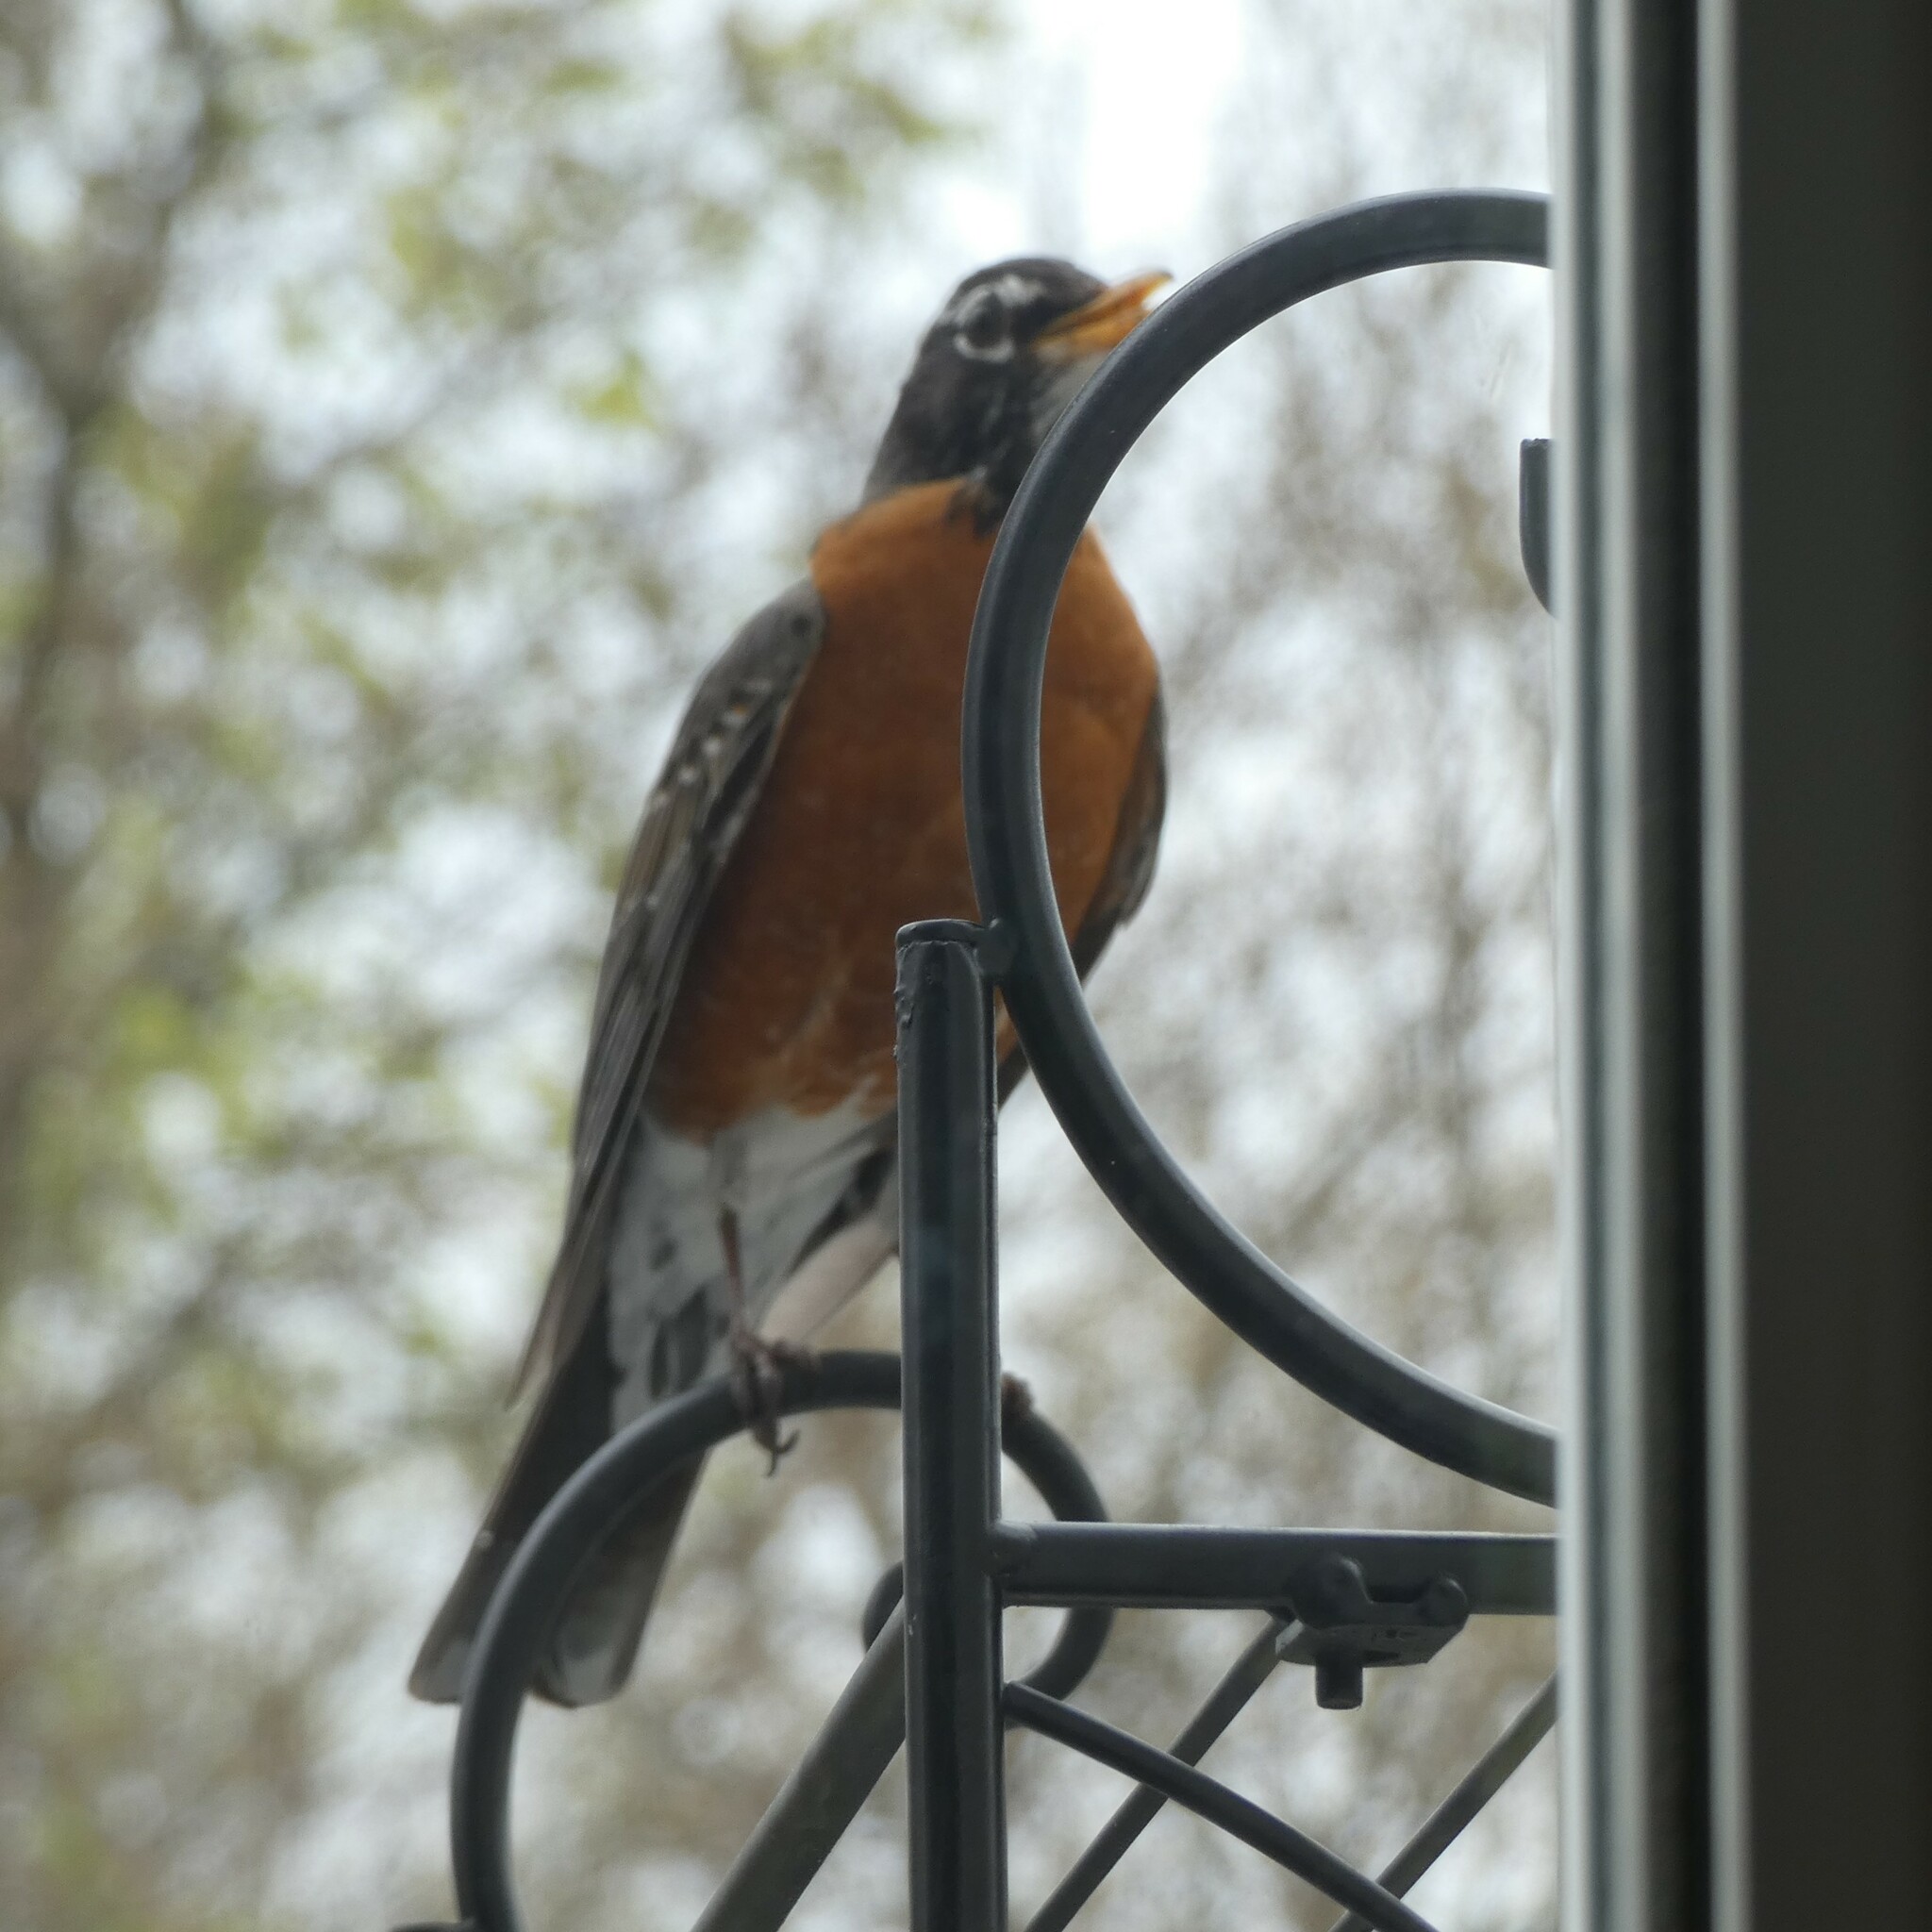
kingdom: Animalia
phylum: Chordata
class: Aves
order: Passeriformes
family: Turdidae
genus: Turdus
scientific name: Turdus migratorius
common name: American robin
